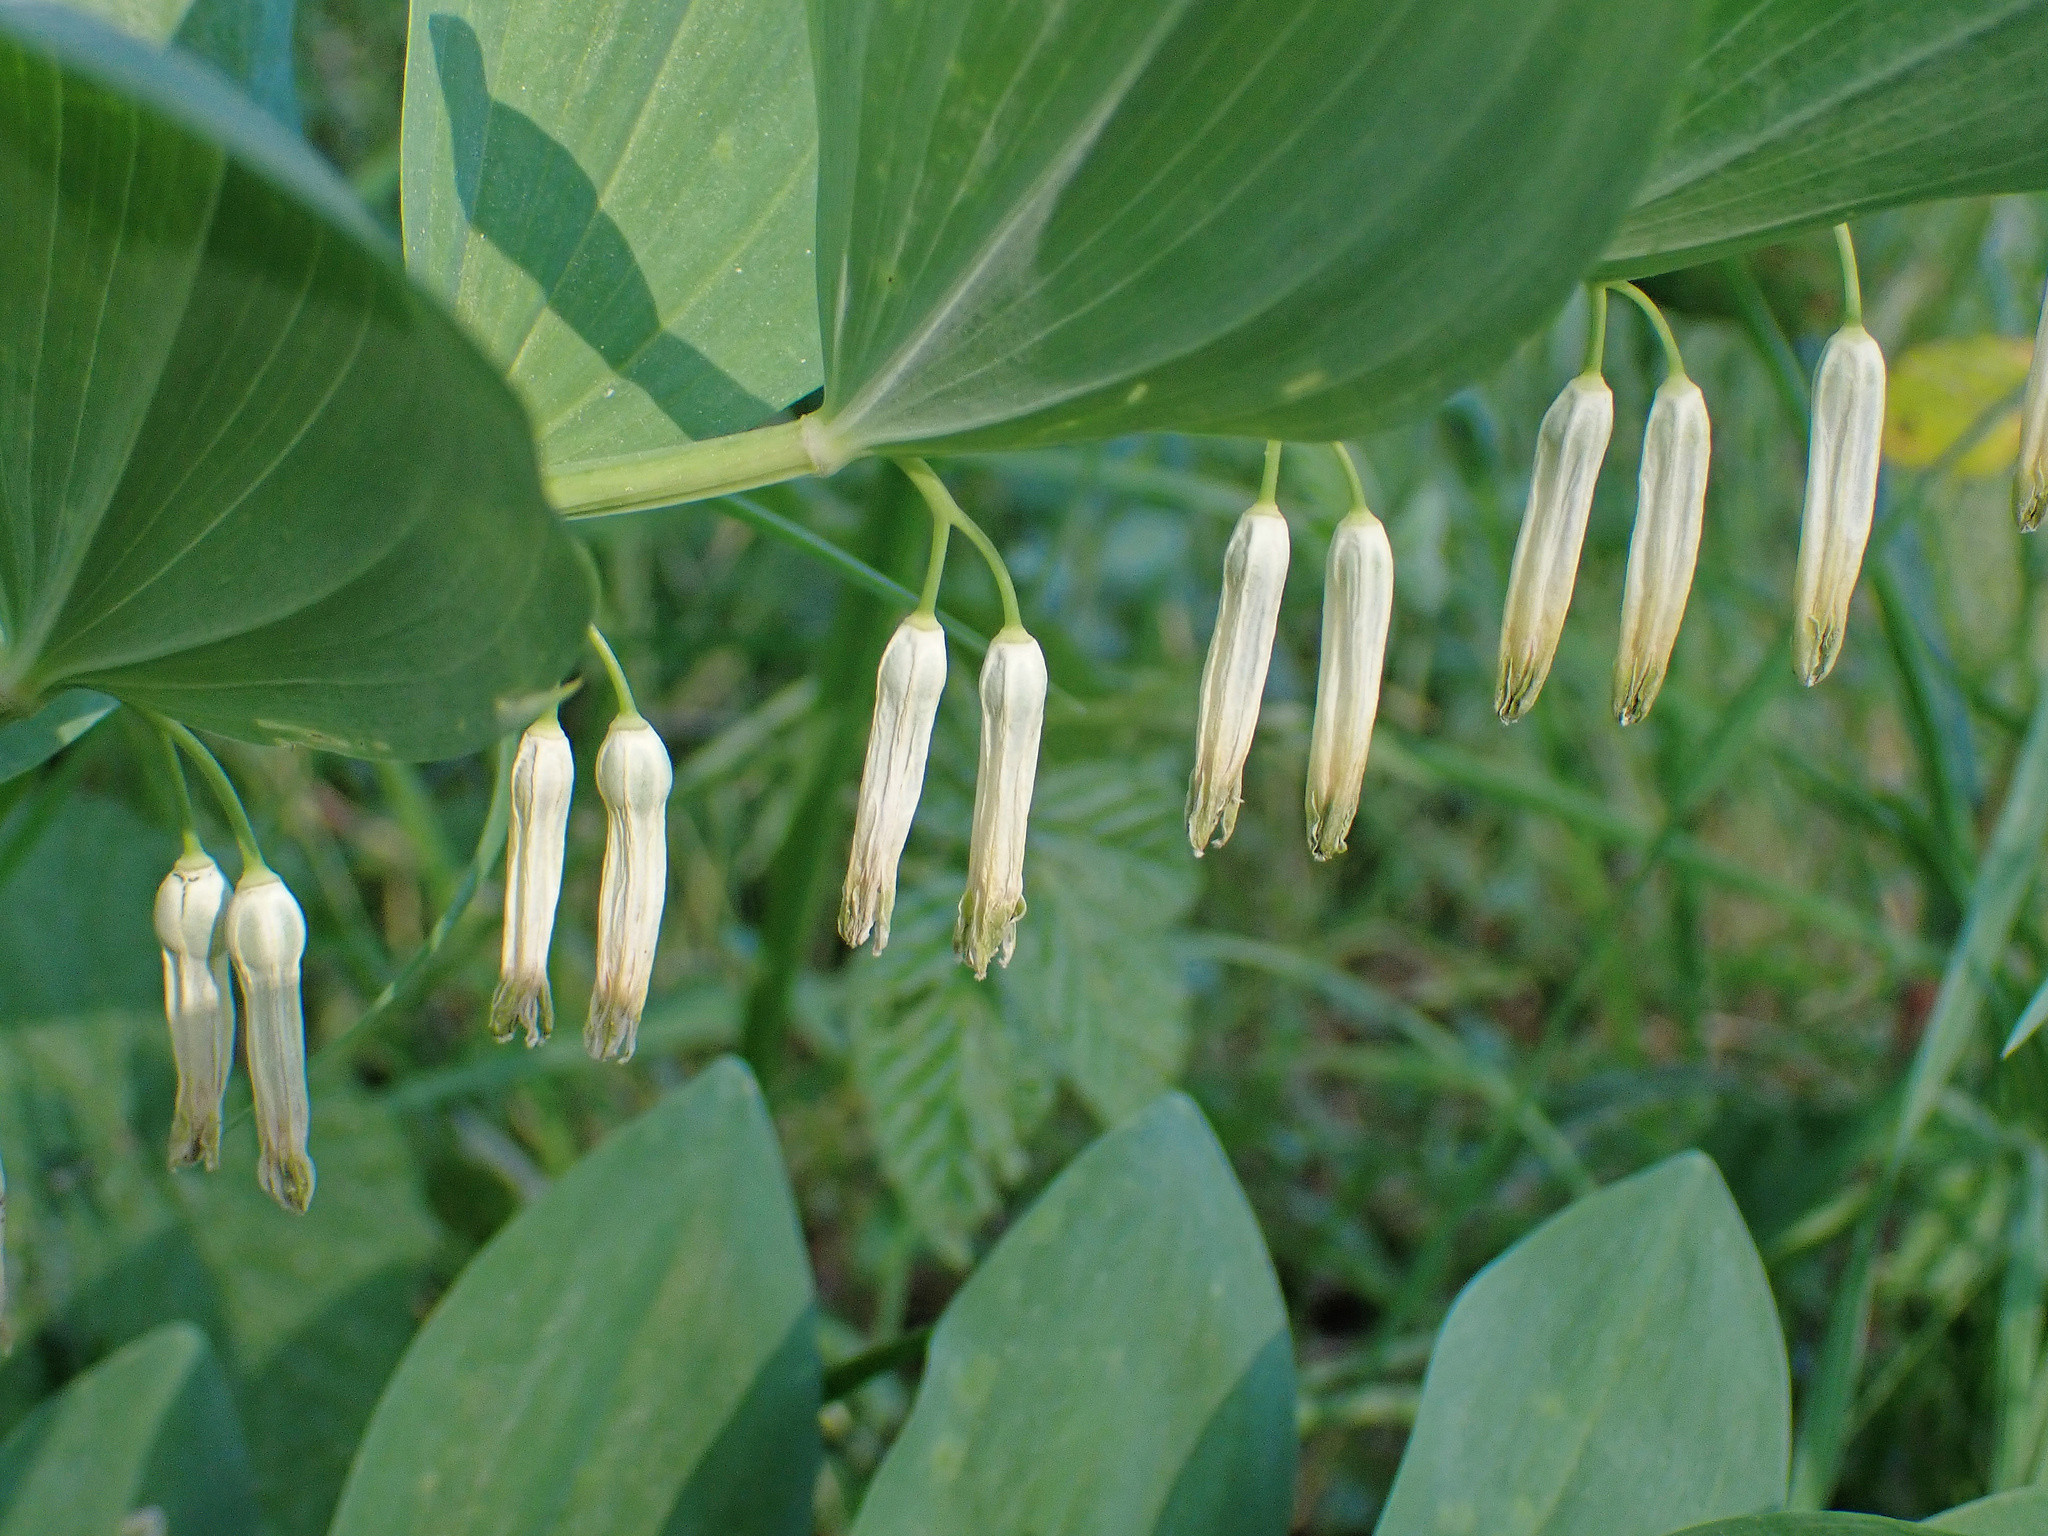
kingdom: Plantae
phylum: Tracheophyta
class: Liliopsida
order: Asparagales
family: Asparagaceae
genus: Polygonatum
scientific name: Polygonatum odoratum
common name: Angular solomon's-seal
